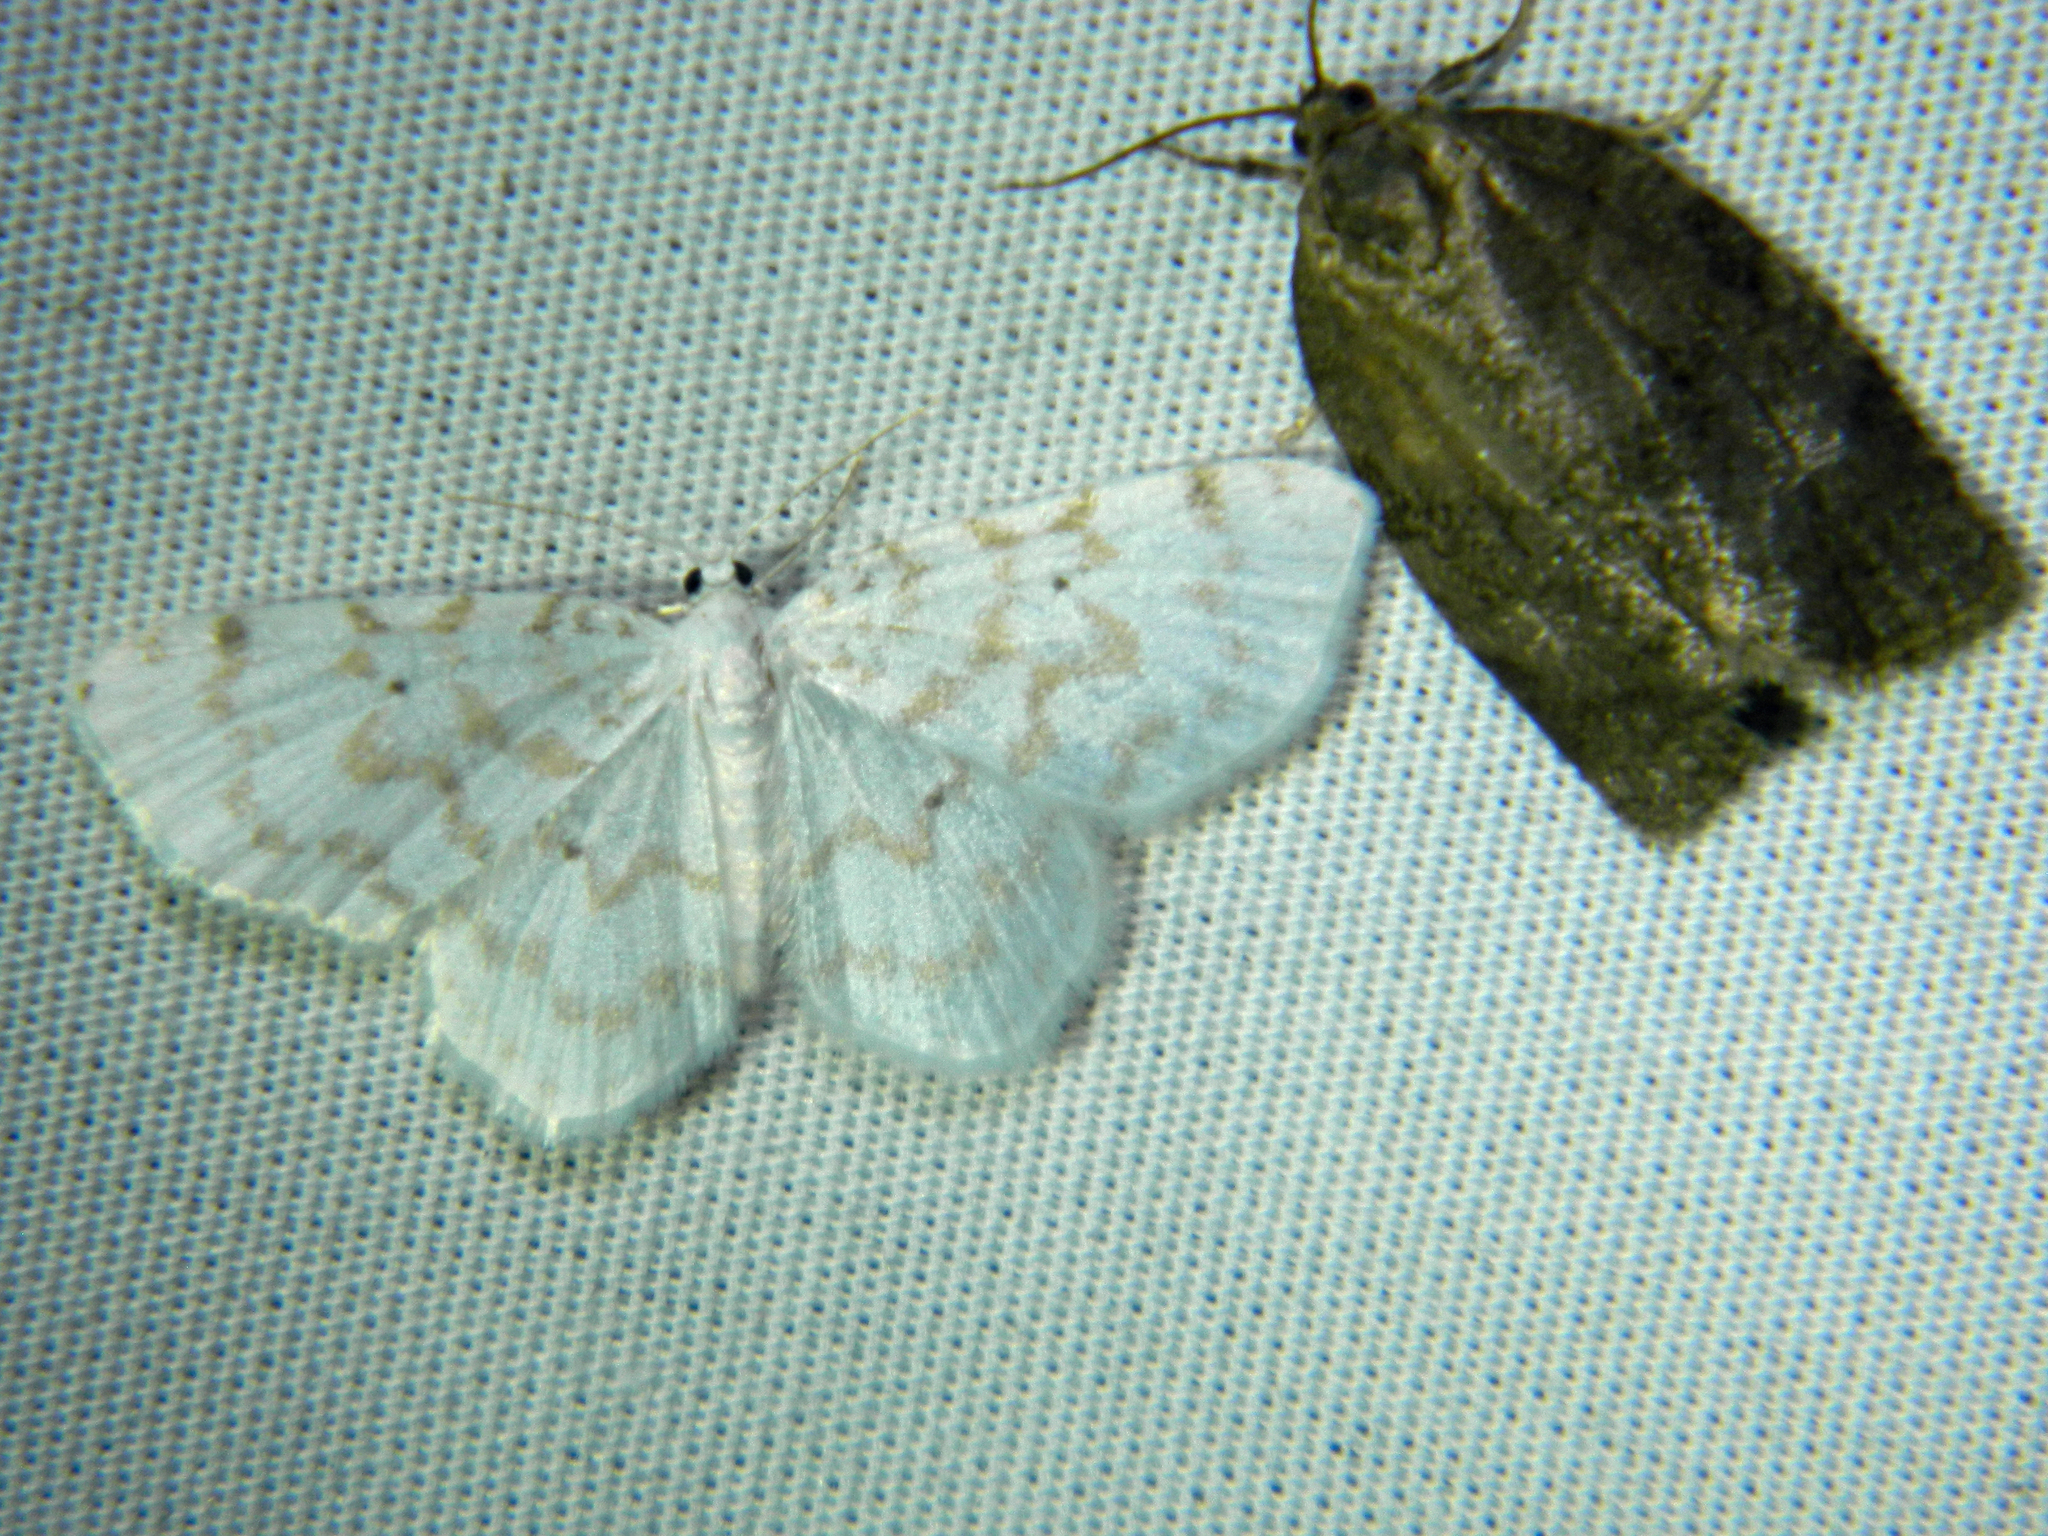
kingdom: Animalia
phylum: Arthropoda
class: Insecta
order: Lepidoptera
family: Geometridae
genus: Hydrelia
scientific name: Hydrelia albifera
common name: Fragile white carpet
